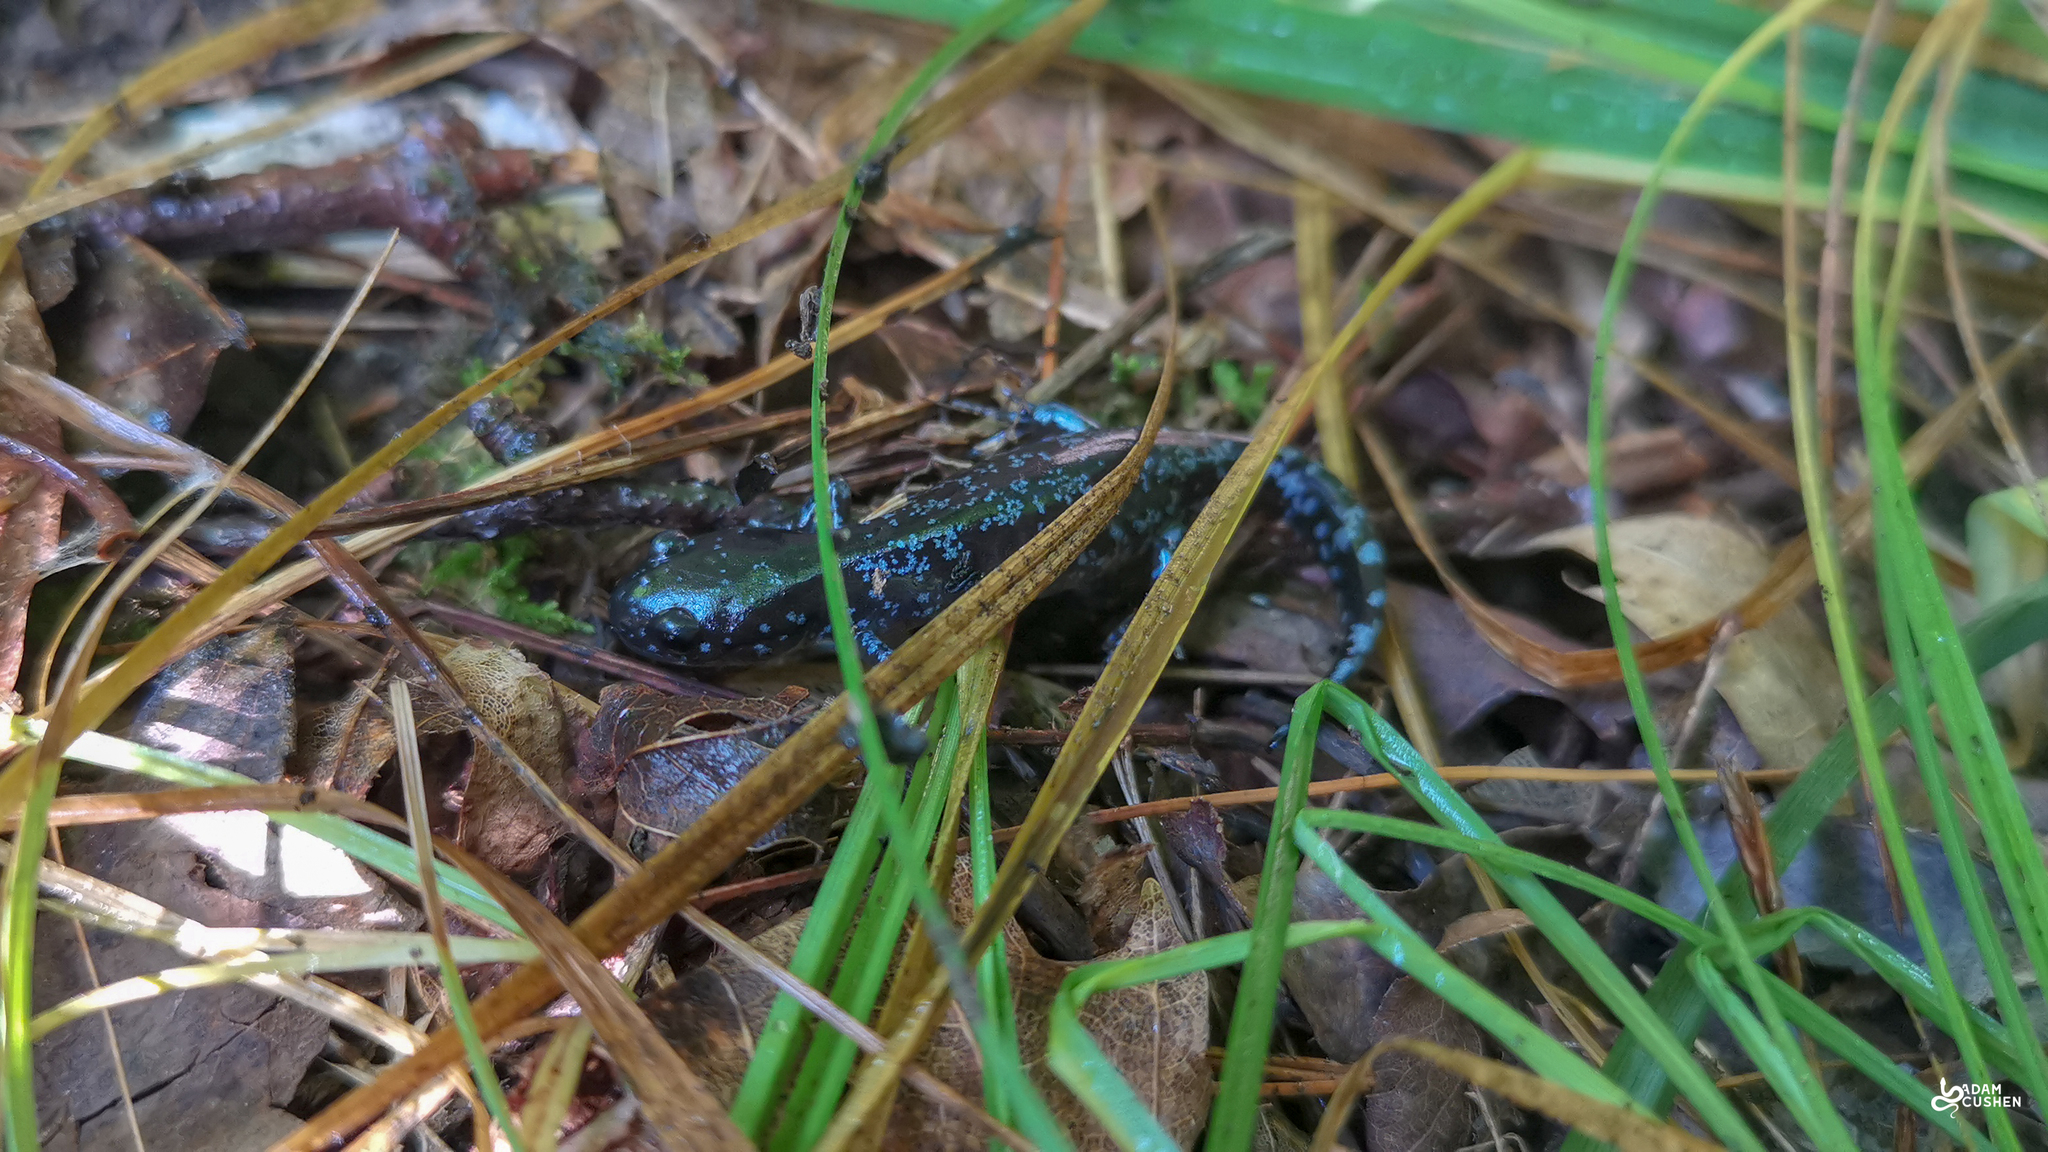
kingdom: Animalia
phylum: Chordata
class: Amphibia
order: Caudata
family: Ambystomatidae
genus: Ambystoma
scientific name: Ambystoma laterale
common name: Blue-spotted salamander
